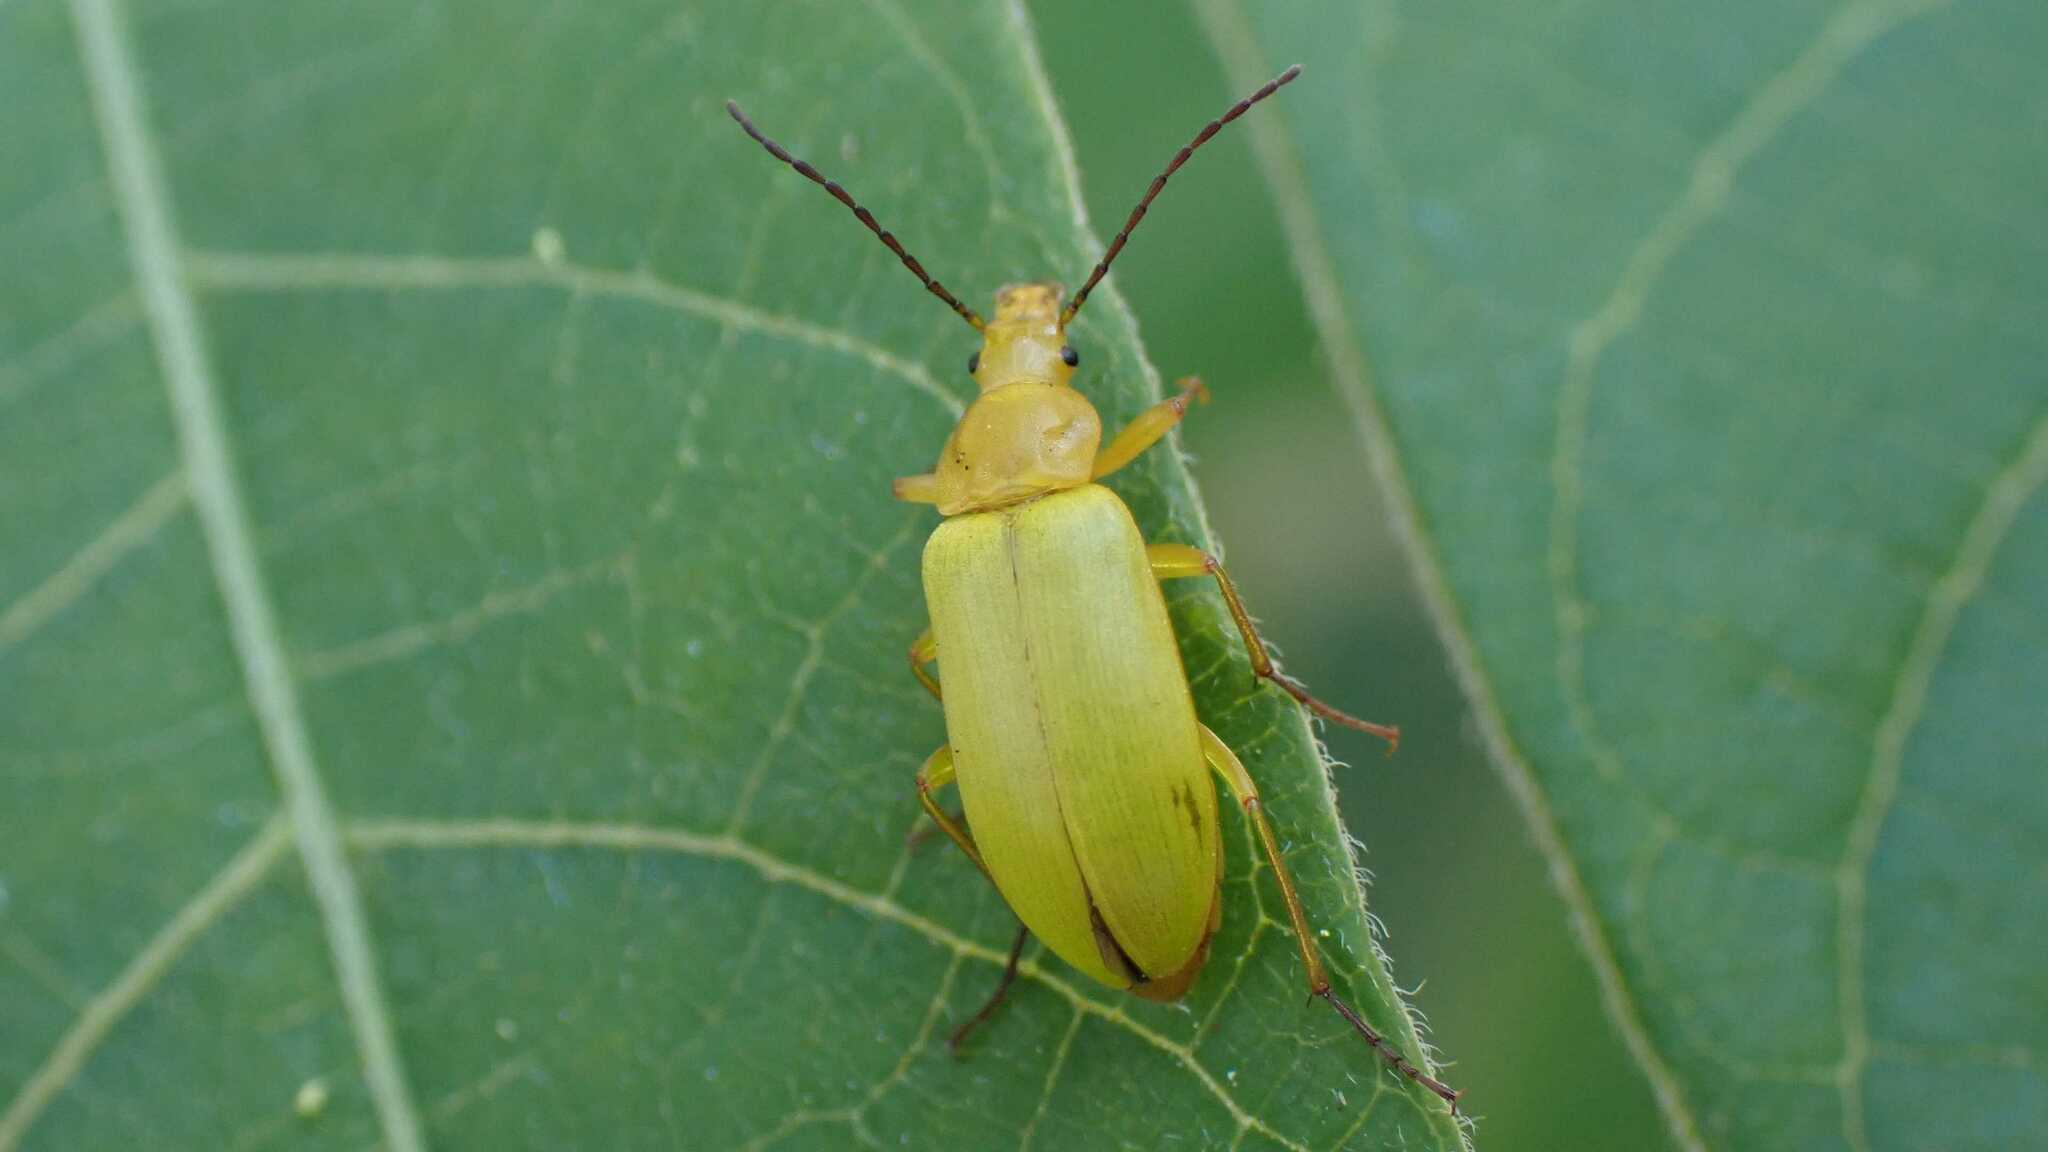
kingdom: Animalia
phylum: Arthropoda
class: Insecta
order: Coleoptera
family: Tenebrionidae
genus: Cteniopus
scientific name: Cteniopus sulphureus
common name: Sulphur beetle
